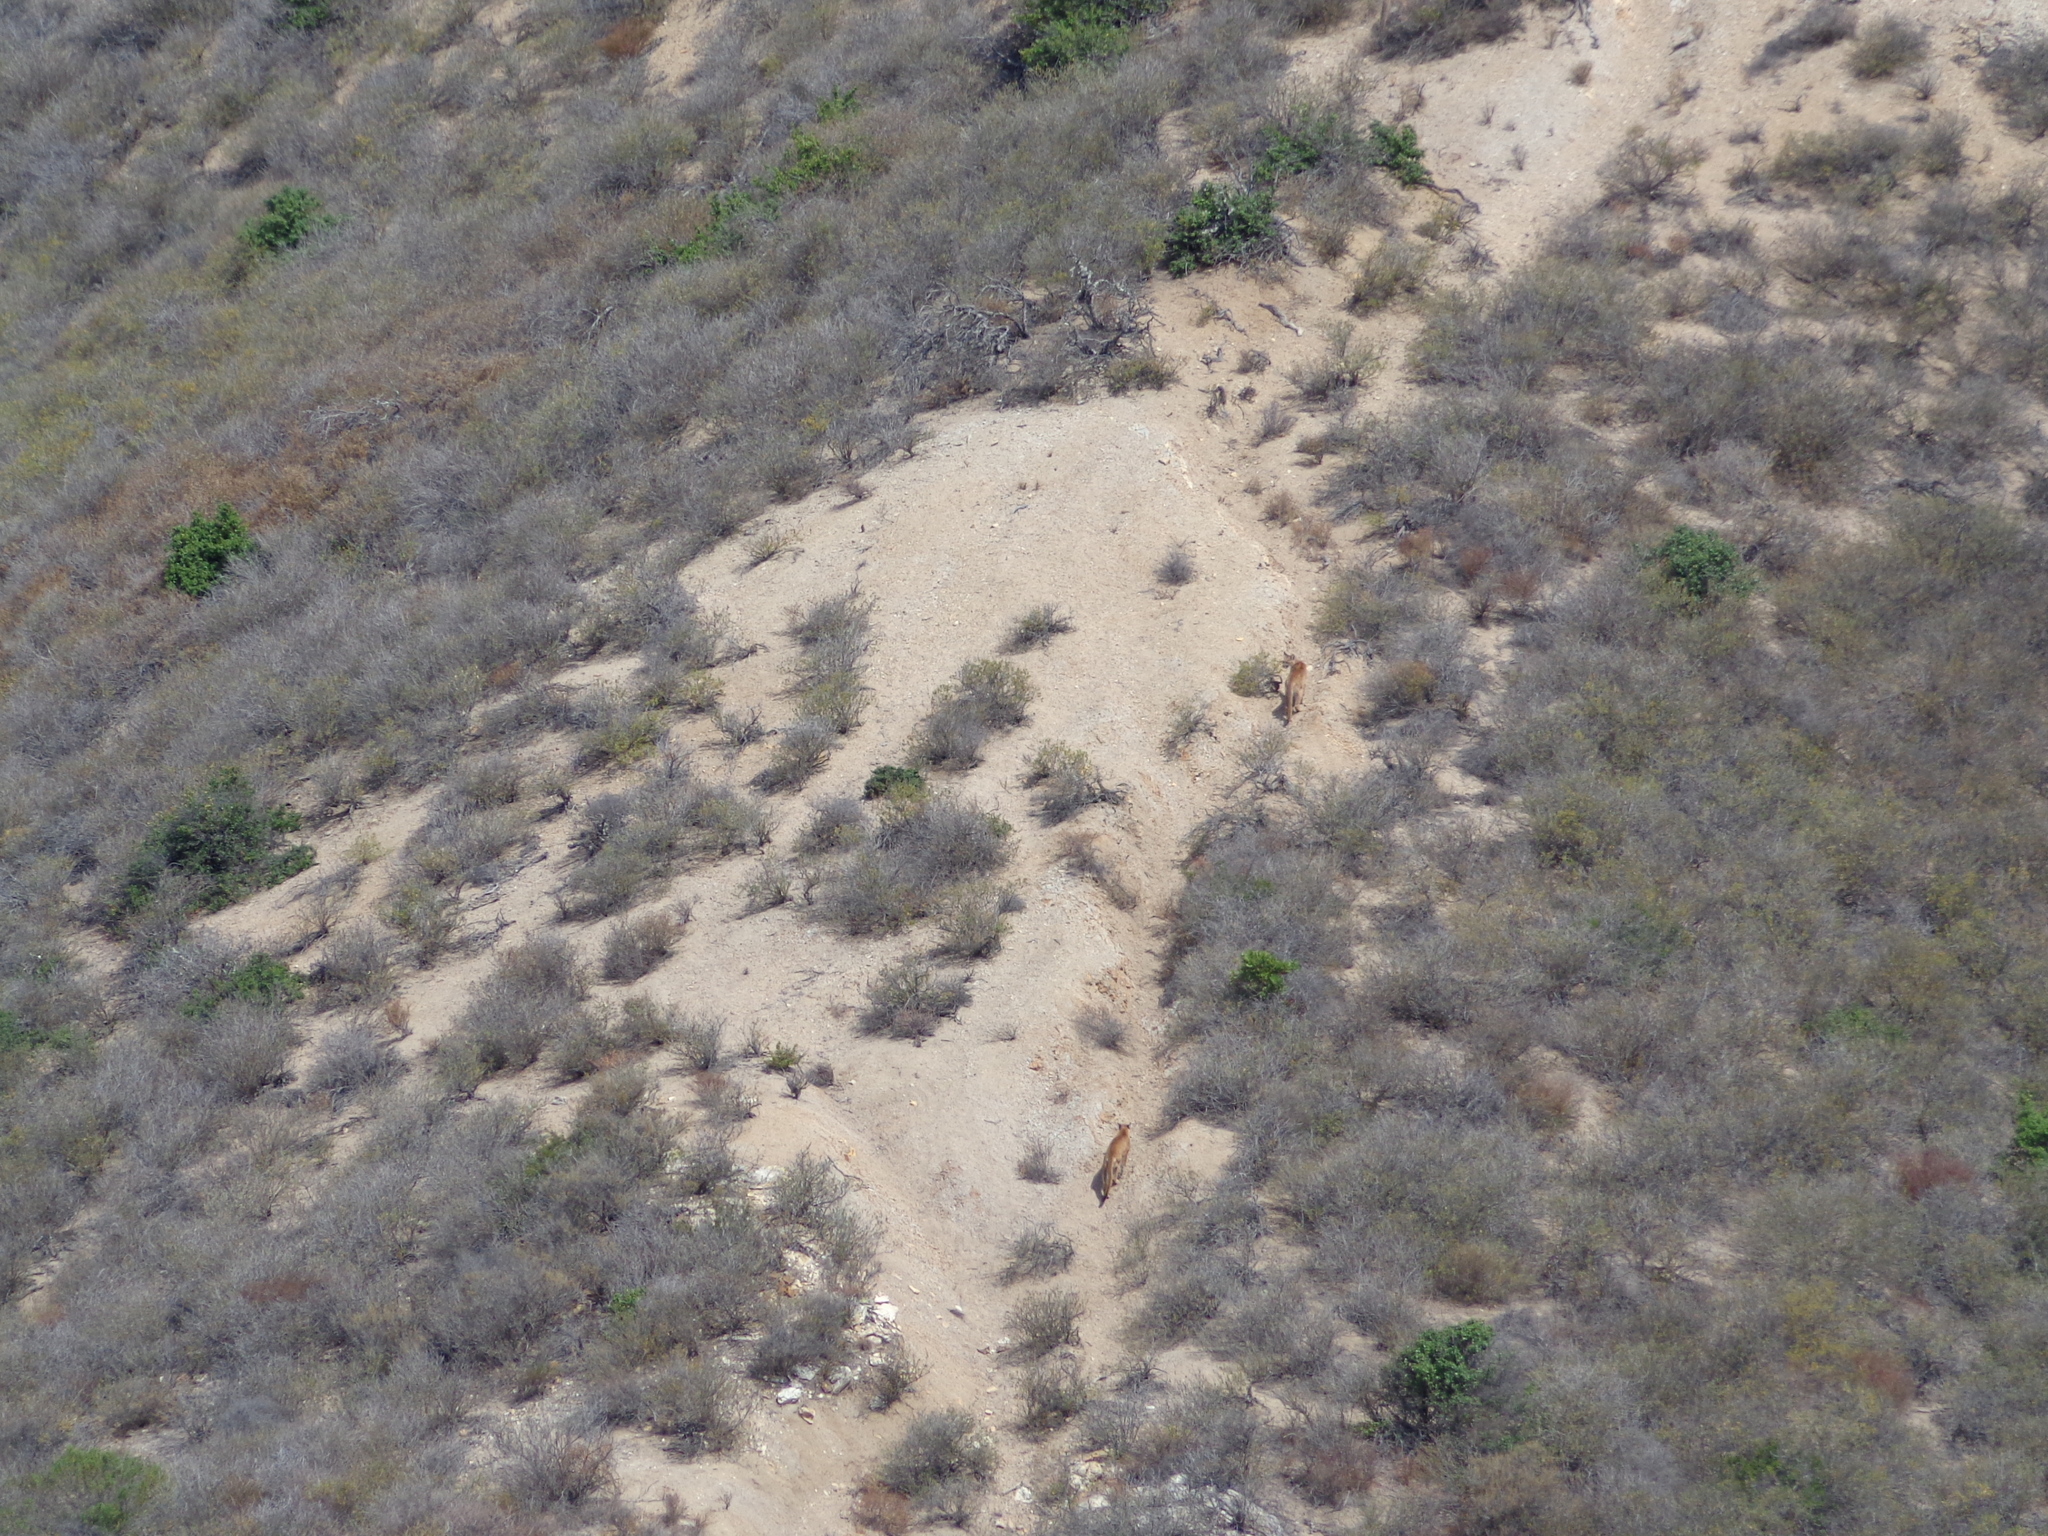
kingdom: Animalia
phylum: Chordata
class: Mammalia
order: Carnivora
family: Felidae
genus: Puma
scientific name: Puma concolor
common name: Puma
